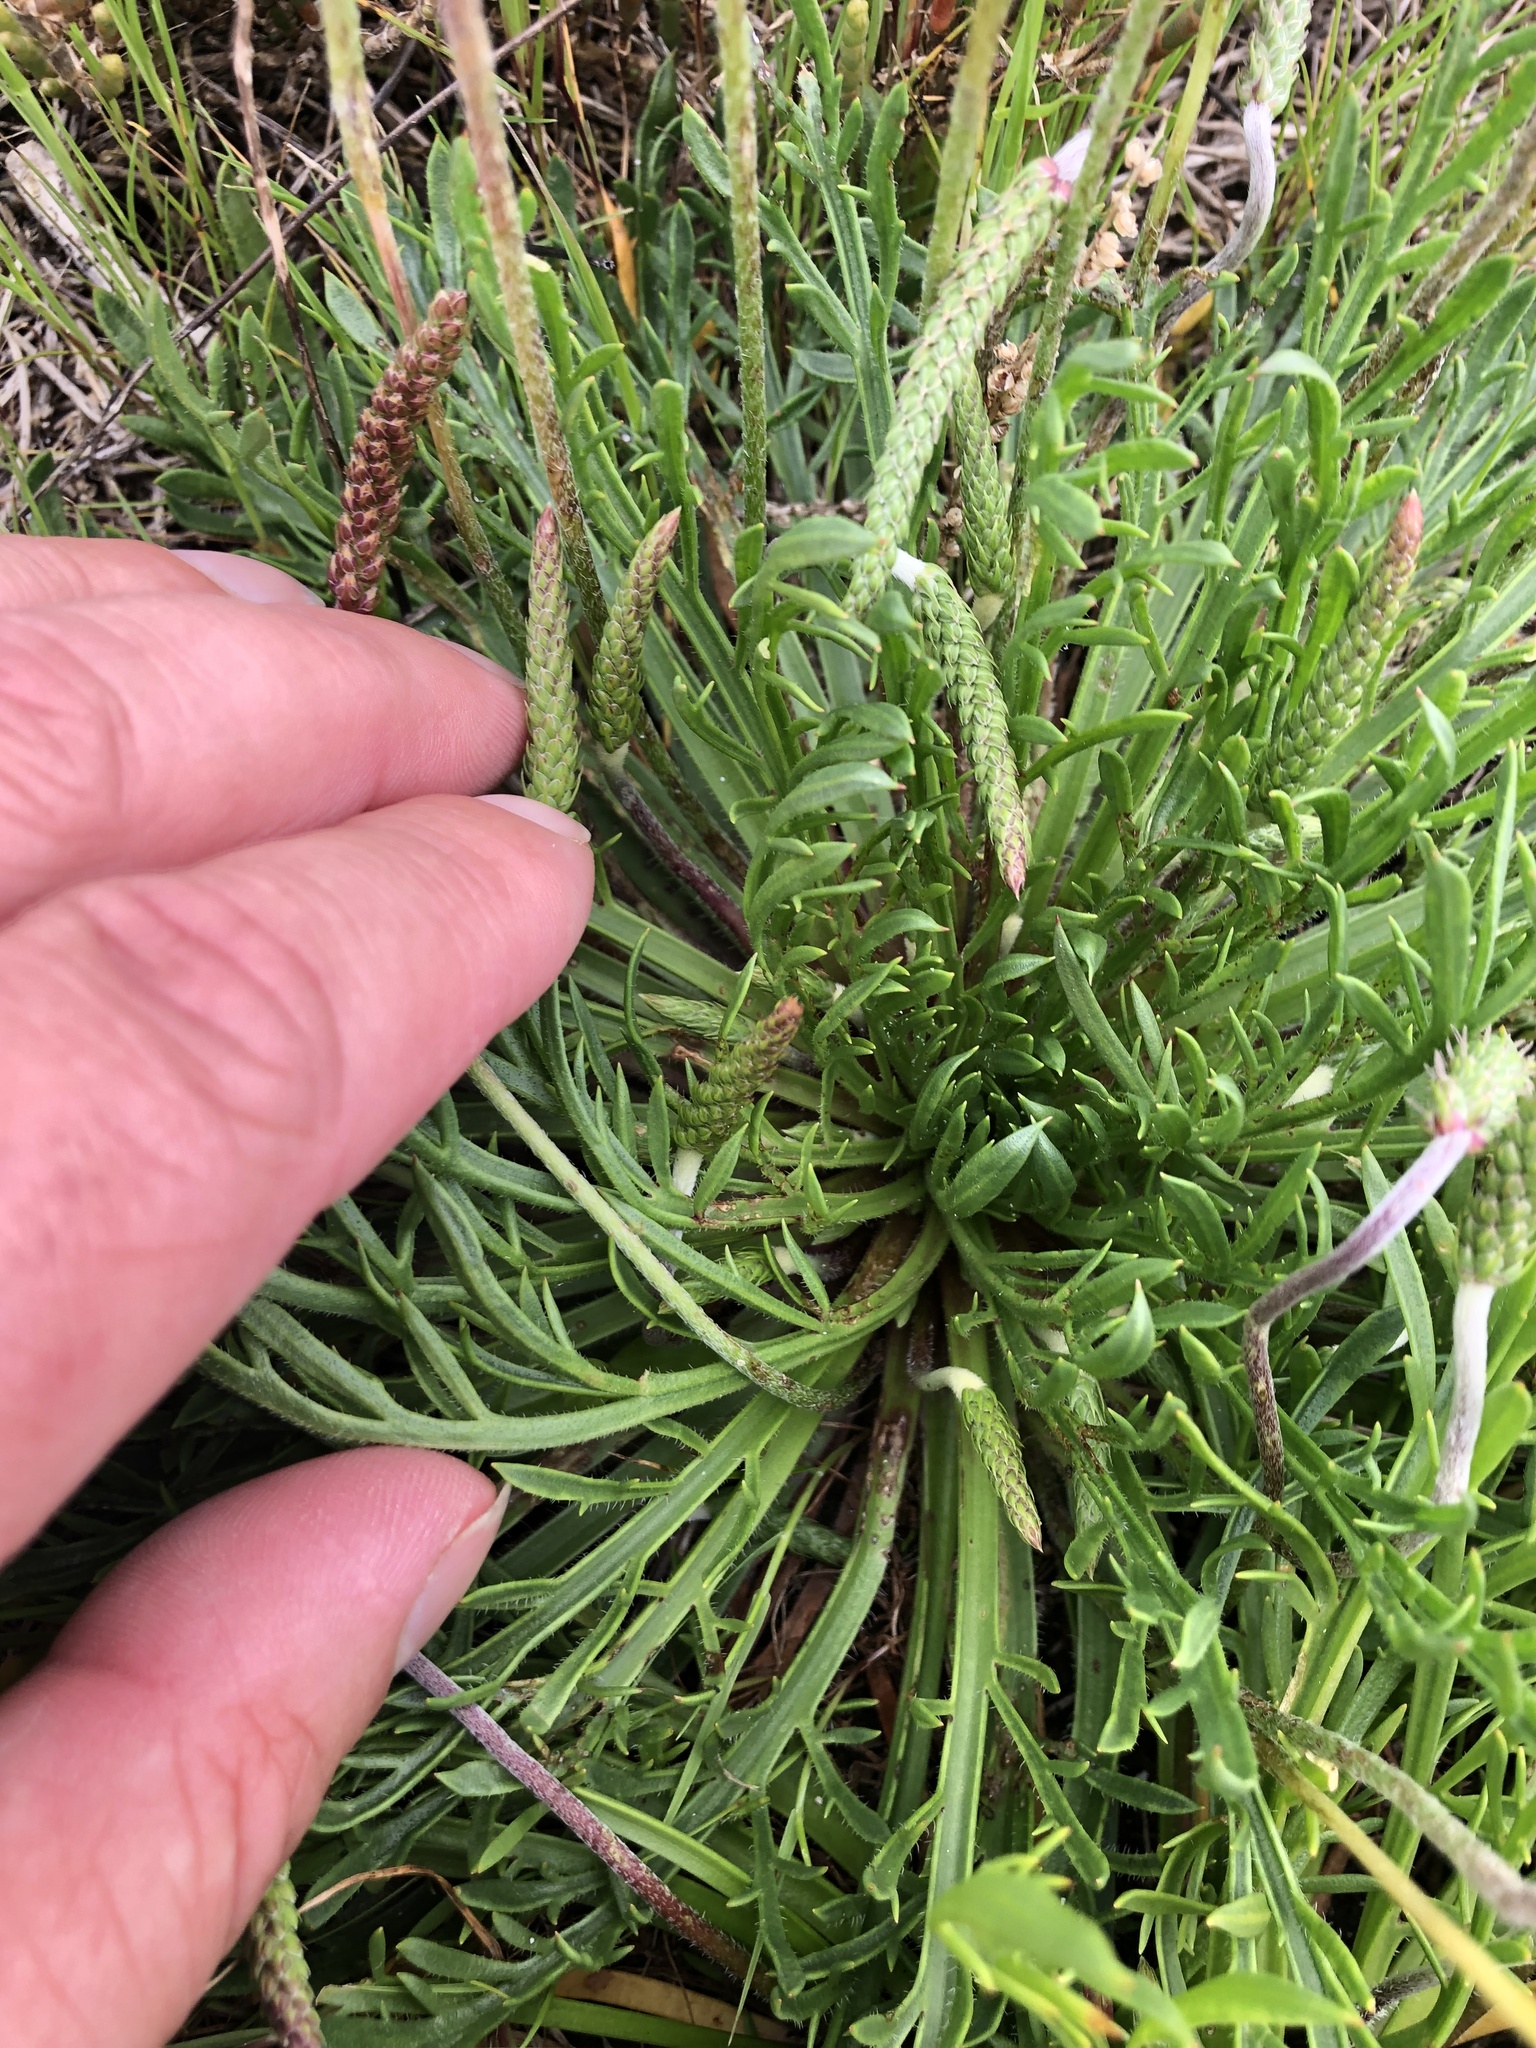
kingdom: Plantae
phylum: Tracheophyta
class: Magnoliopsida
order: Lamiales
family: Plantaginaceae
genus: Plantago
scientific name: Plantago coronopus
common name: Buck's-horn plantain
